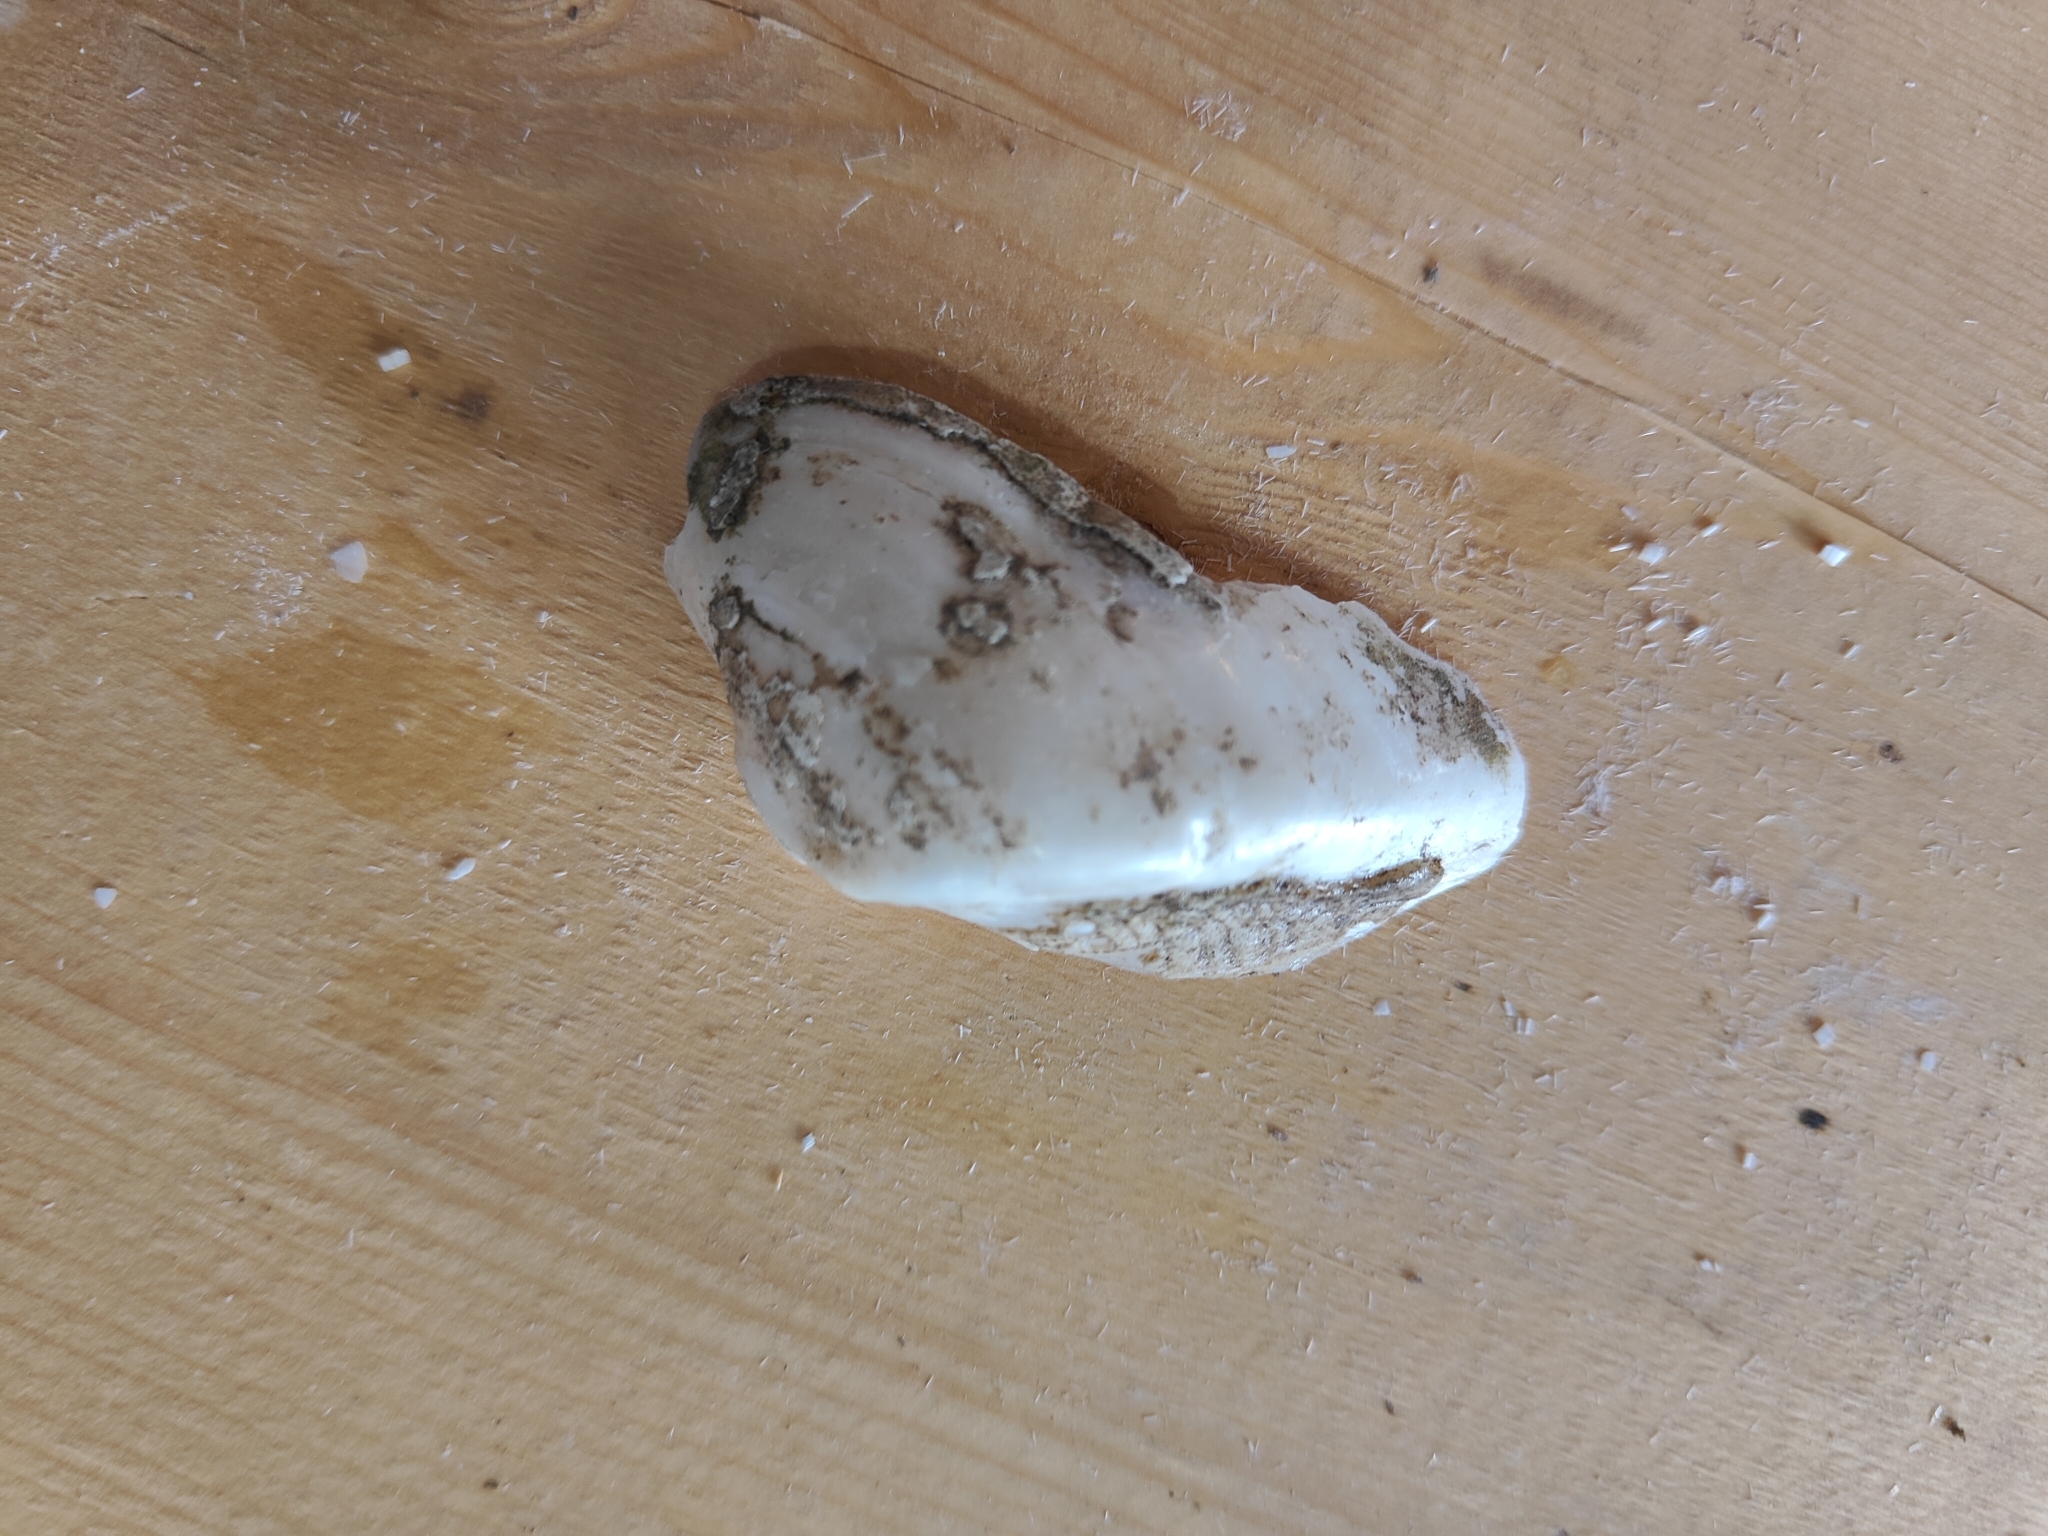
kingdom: Animalia
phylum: Mollusca
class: Bivalvia
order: Unionida
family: Unionidae
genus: Alasmidonta
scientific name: Alasmidonta marginata
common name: Elktoe
